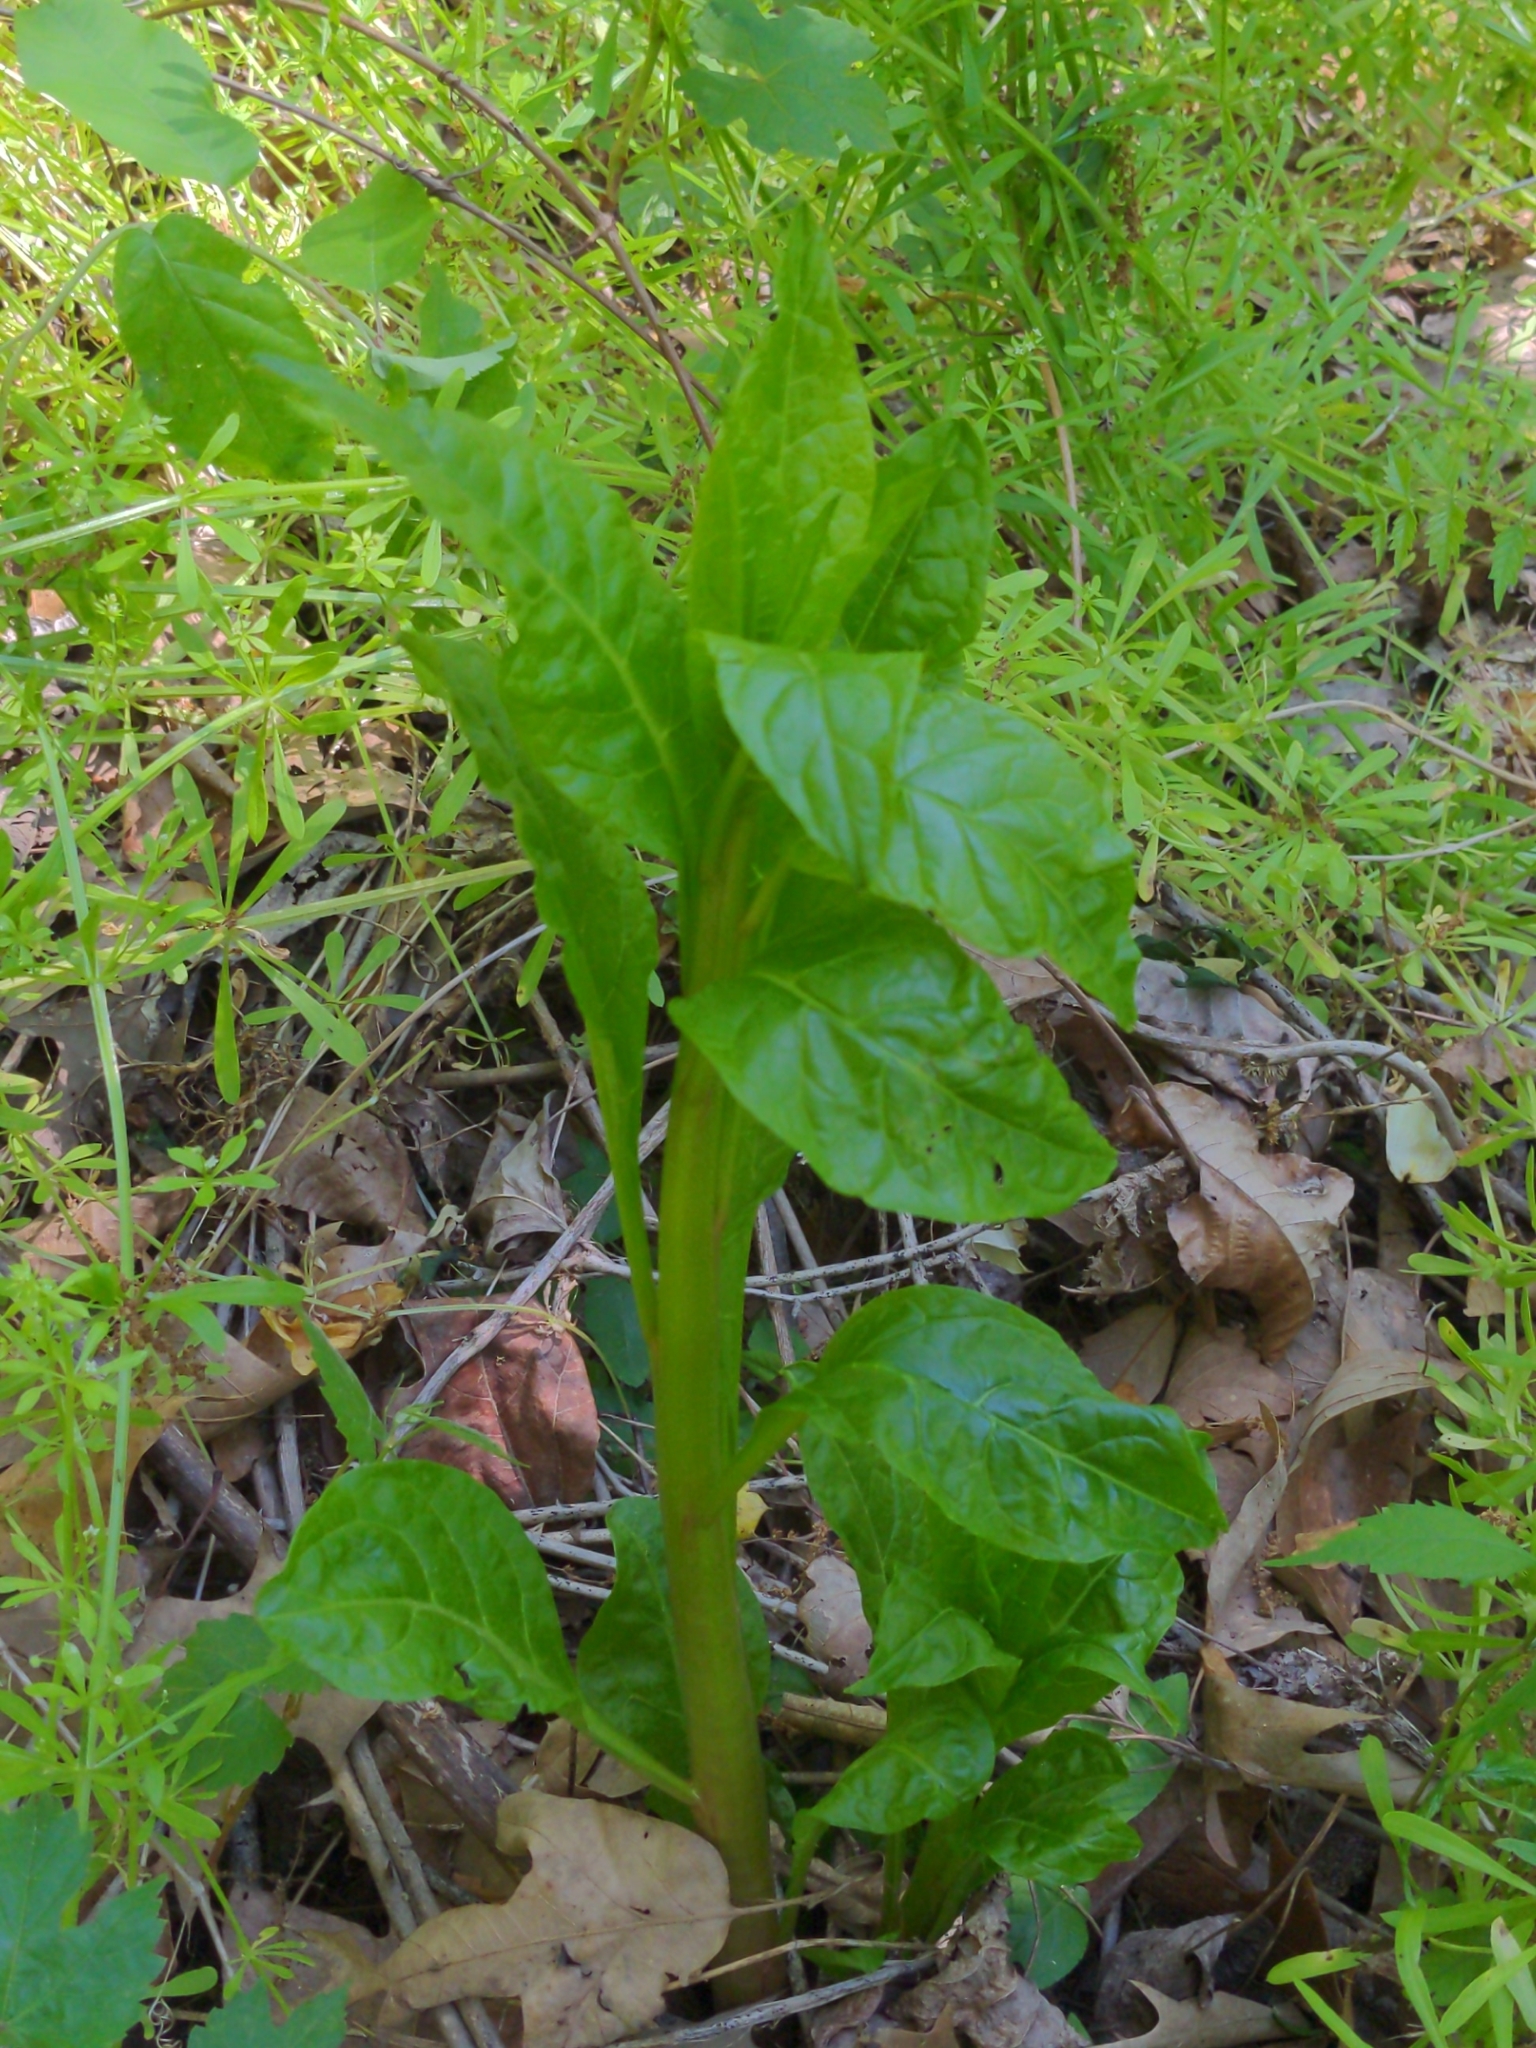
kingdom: Plantae
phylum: Tracheophyta
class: Magnoliopsida
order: Caryophyllales
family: Phytolaccaceae
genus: Phytolacca
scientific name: Phytolacca americana
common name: American pokeweed
